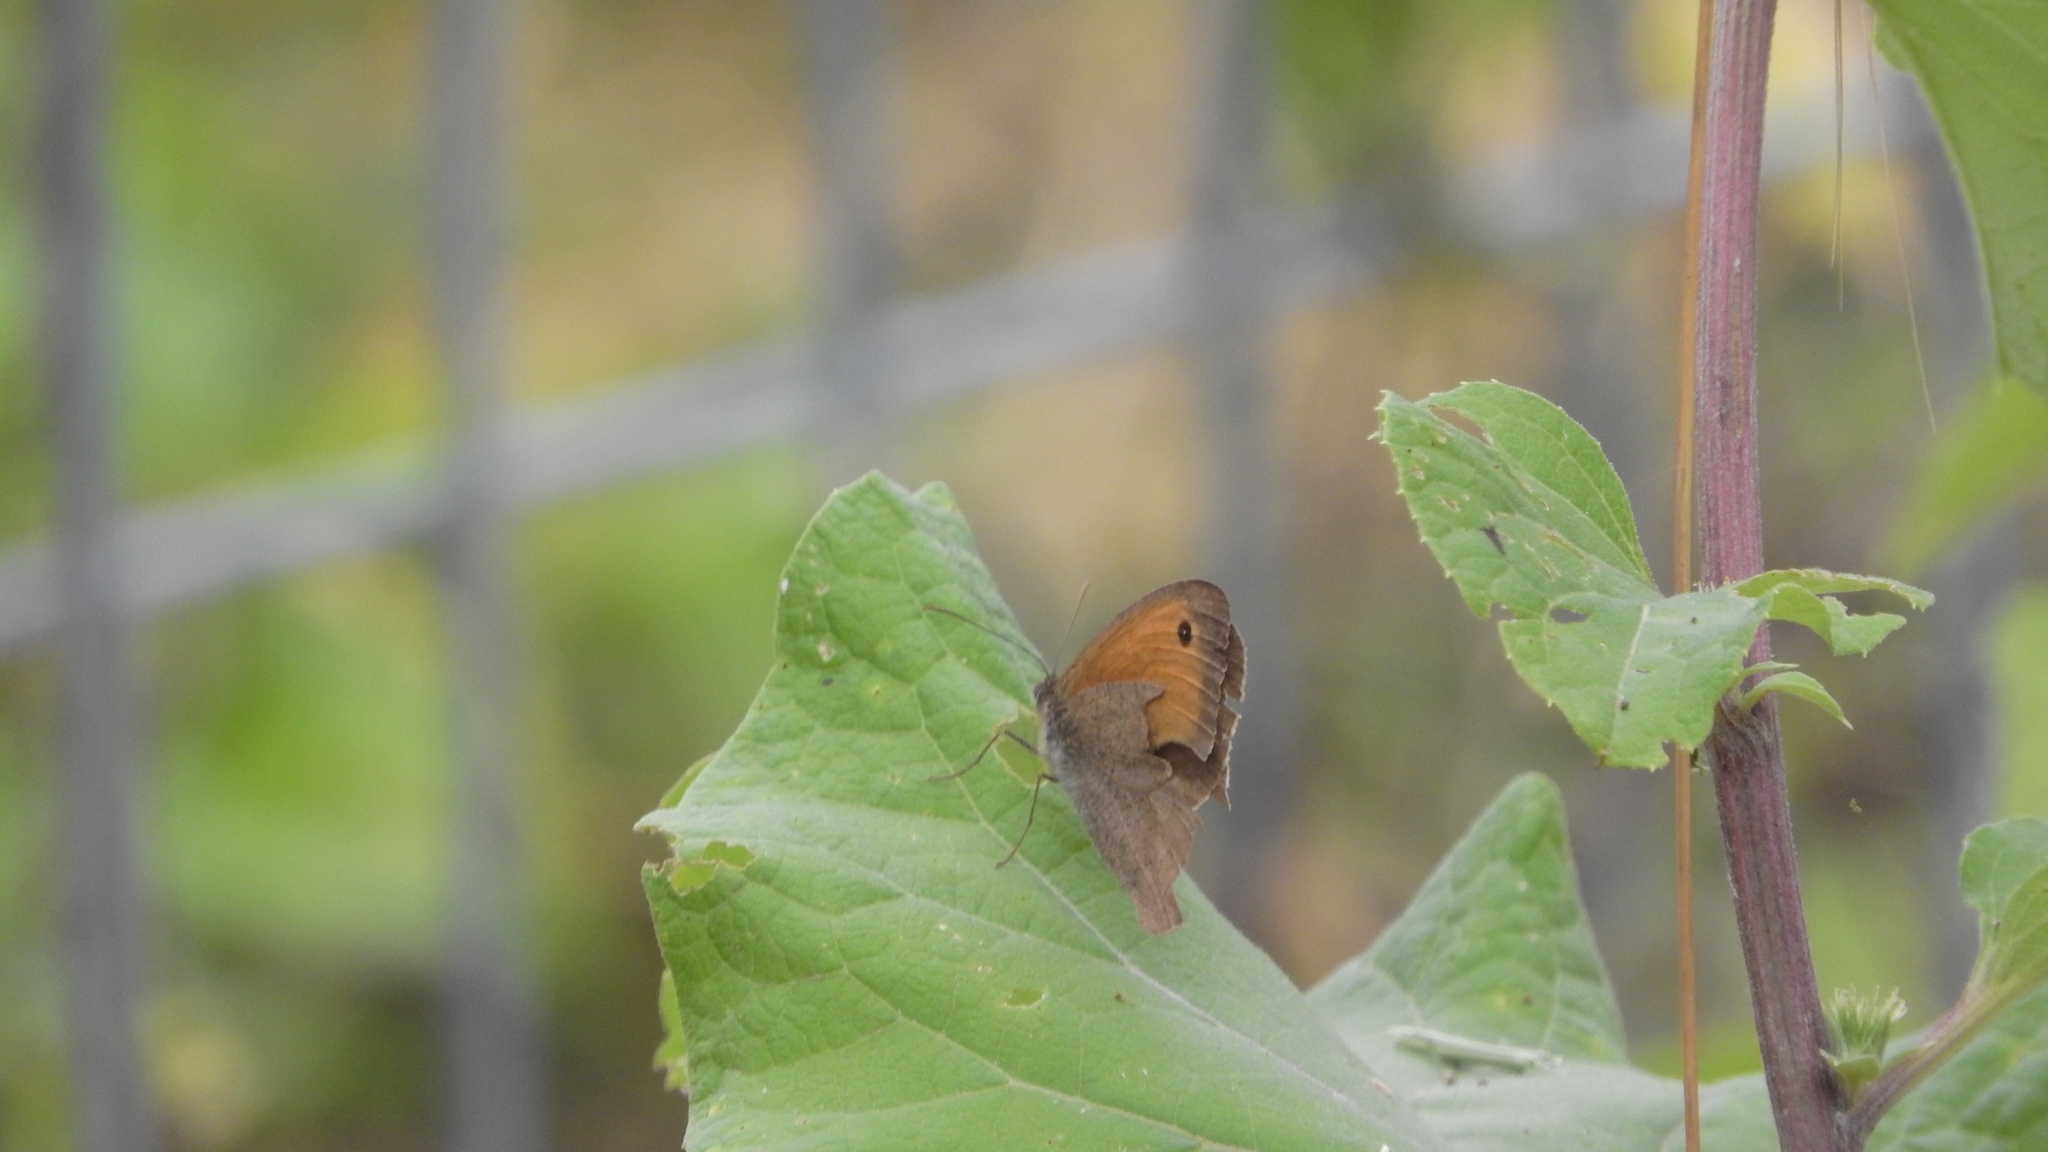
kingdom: Animalia
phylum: Arthropoda
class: Insecta
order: Lepidoptera
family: Nymphalidae
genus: Maniola
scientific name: Maniola jurtina
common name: Meadow brown
